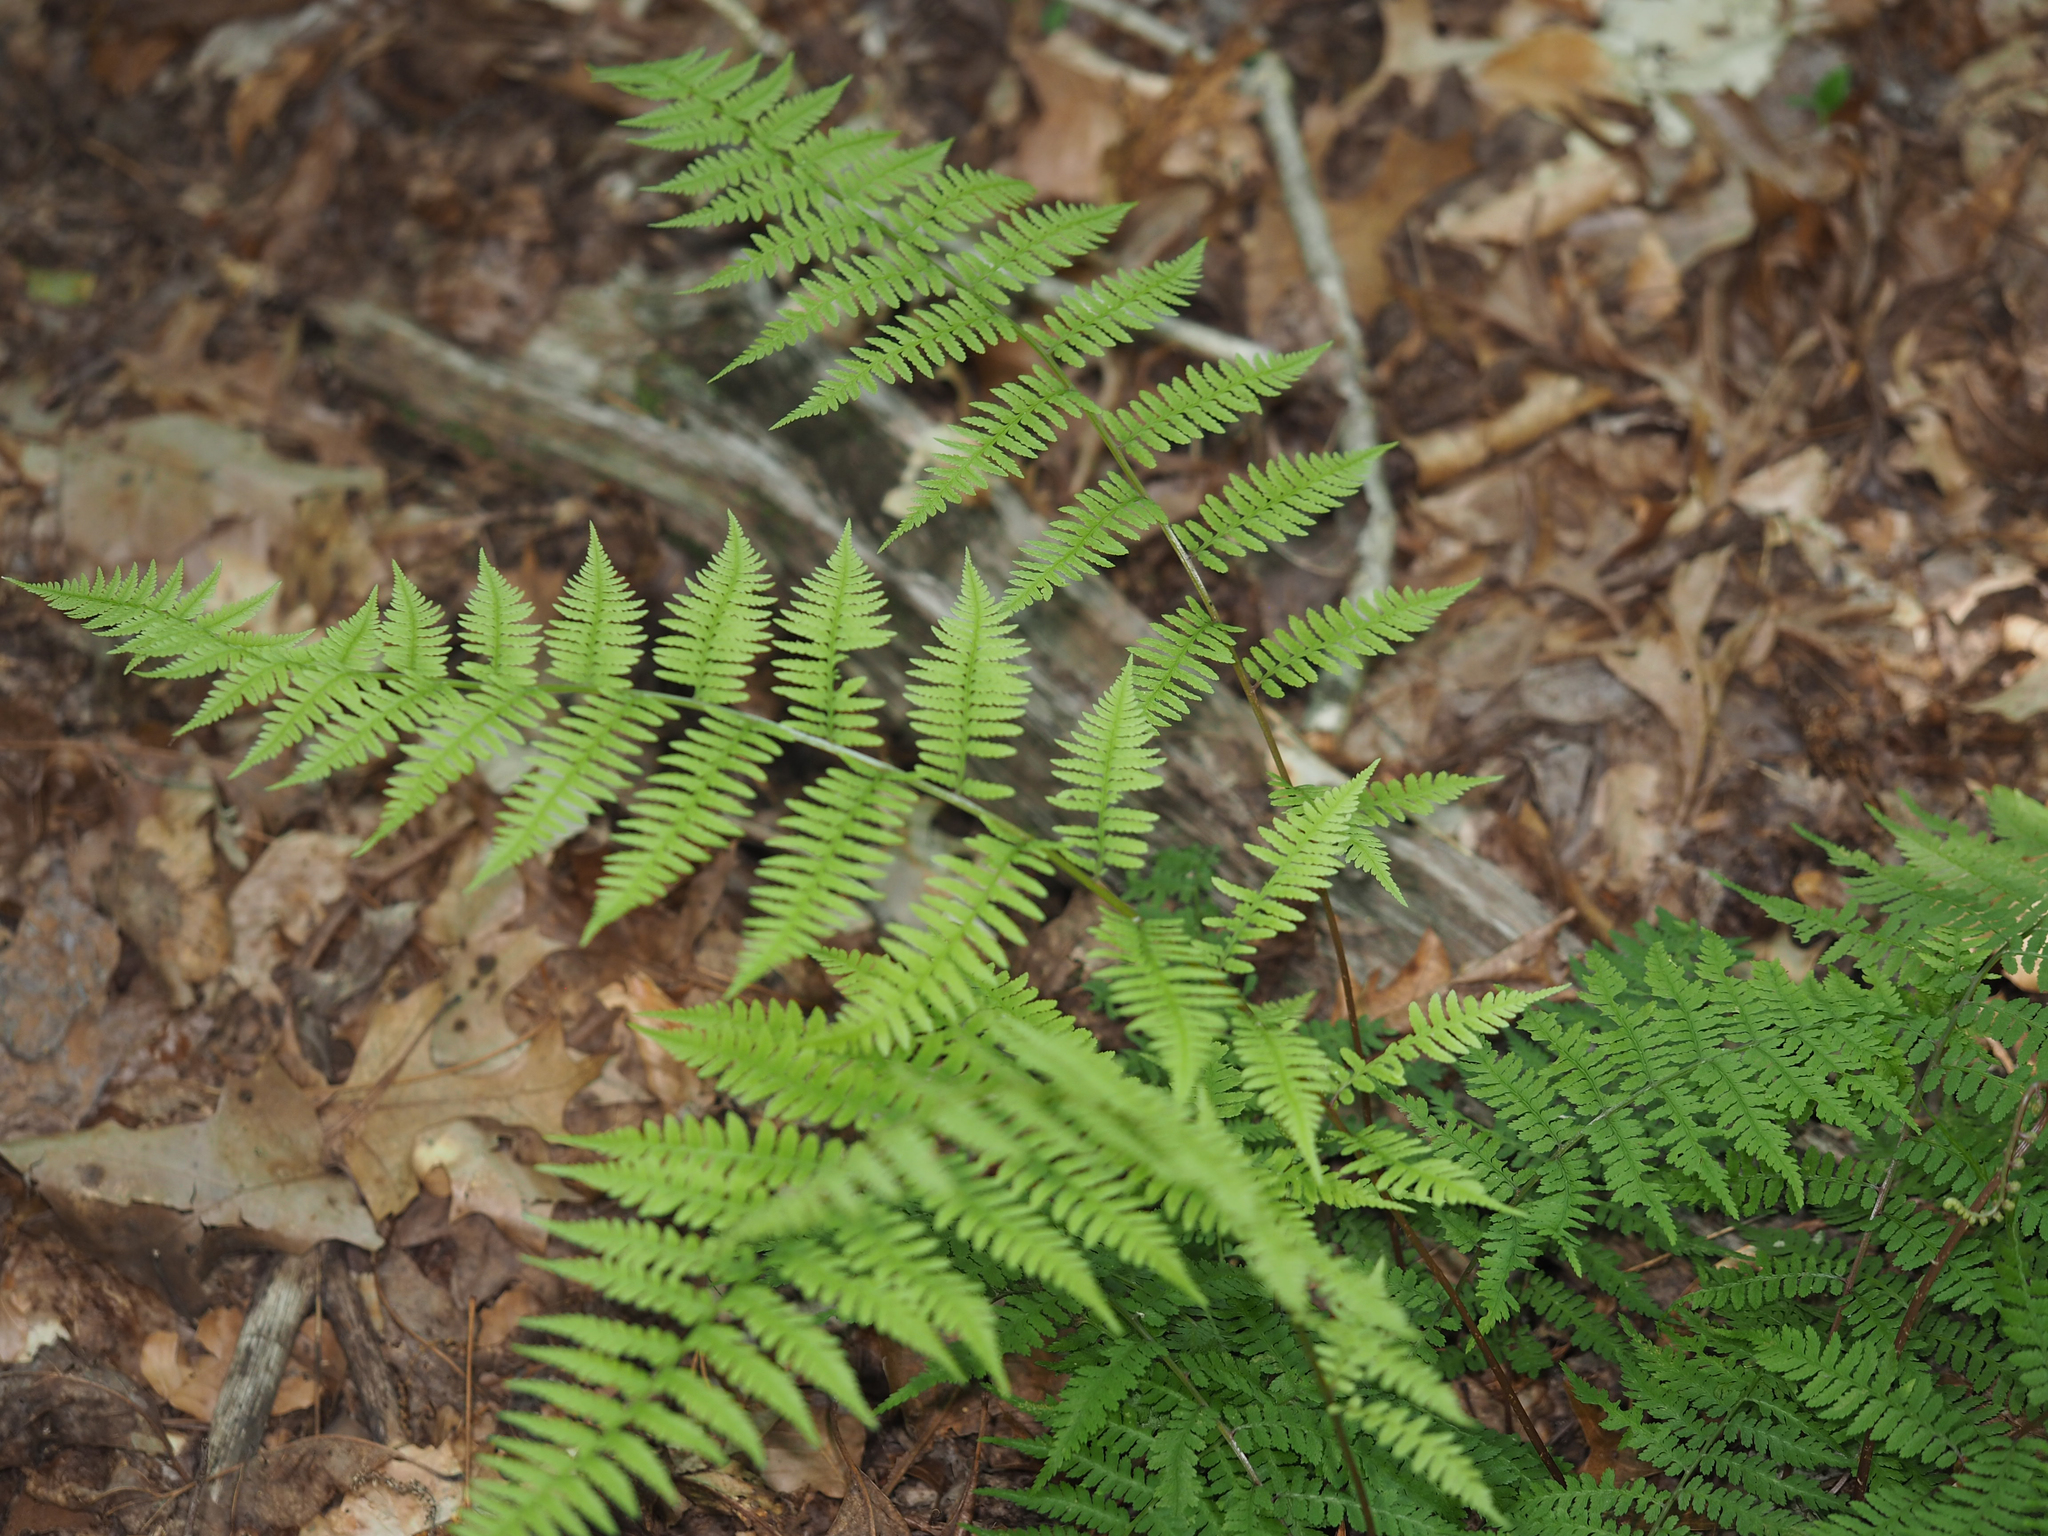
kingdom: Plantae
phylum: Tracheophyta
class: Polypodiopsida
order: Polypodiales
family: Athyriaceae
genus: Athyrium
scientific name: Athyrium asplenioides
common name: Southern lady fern
